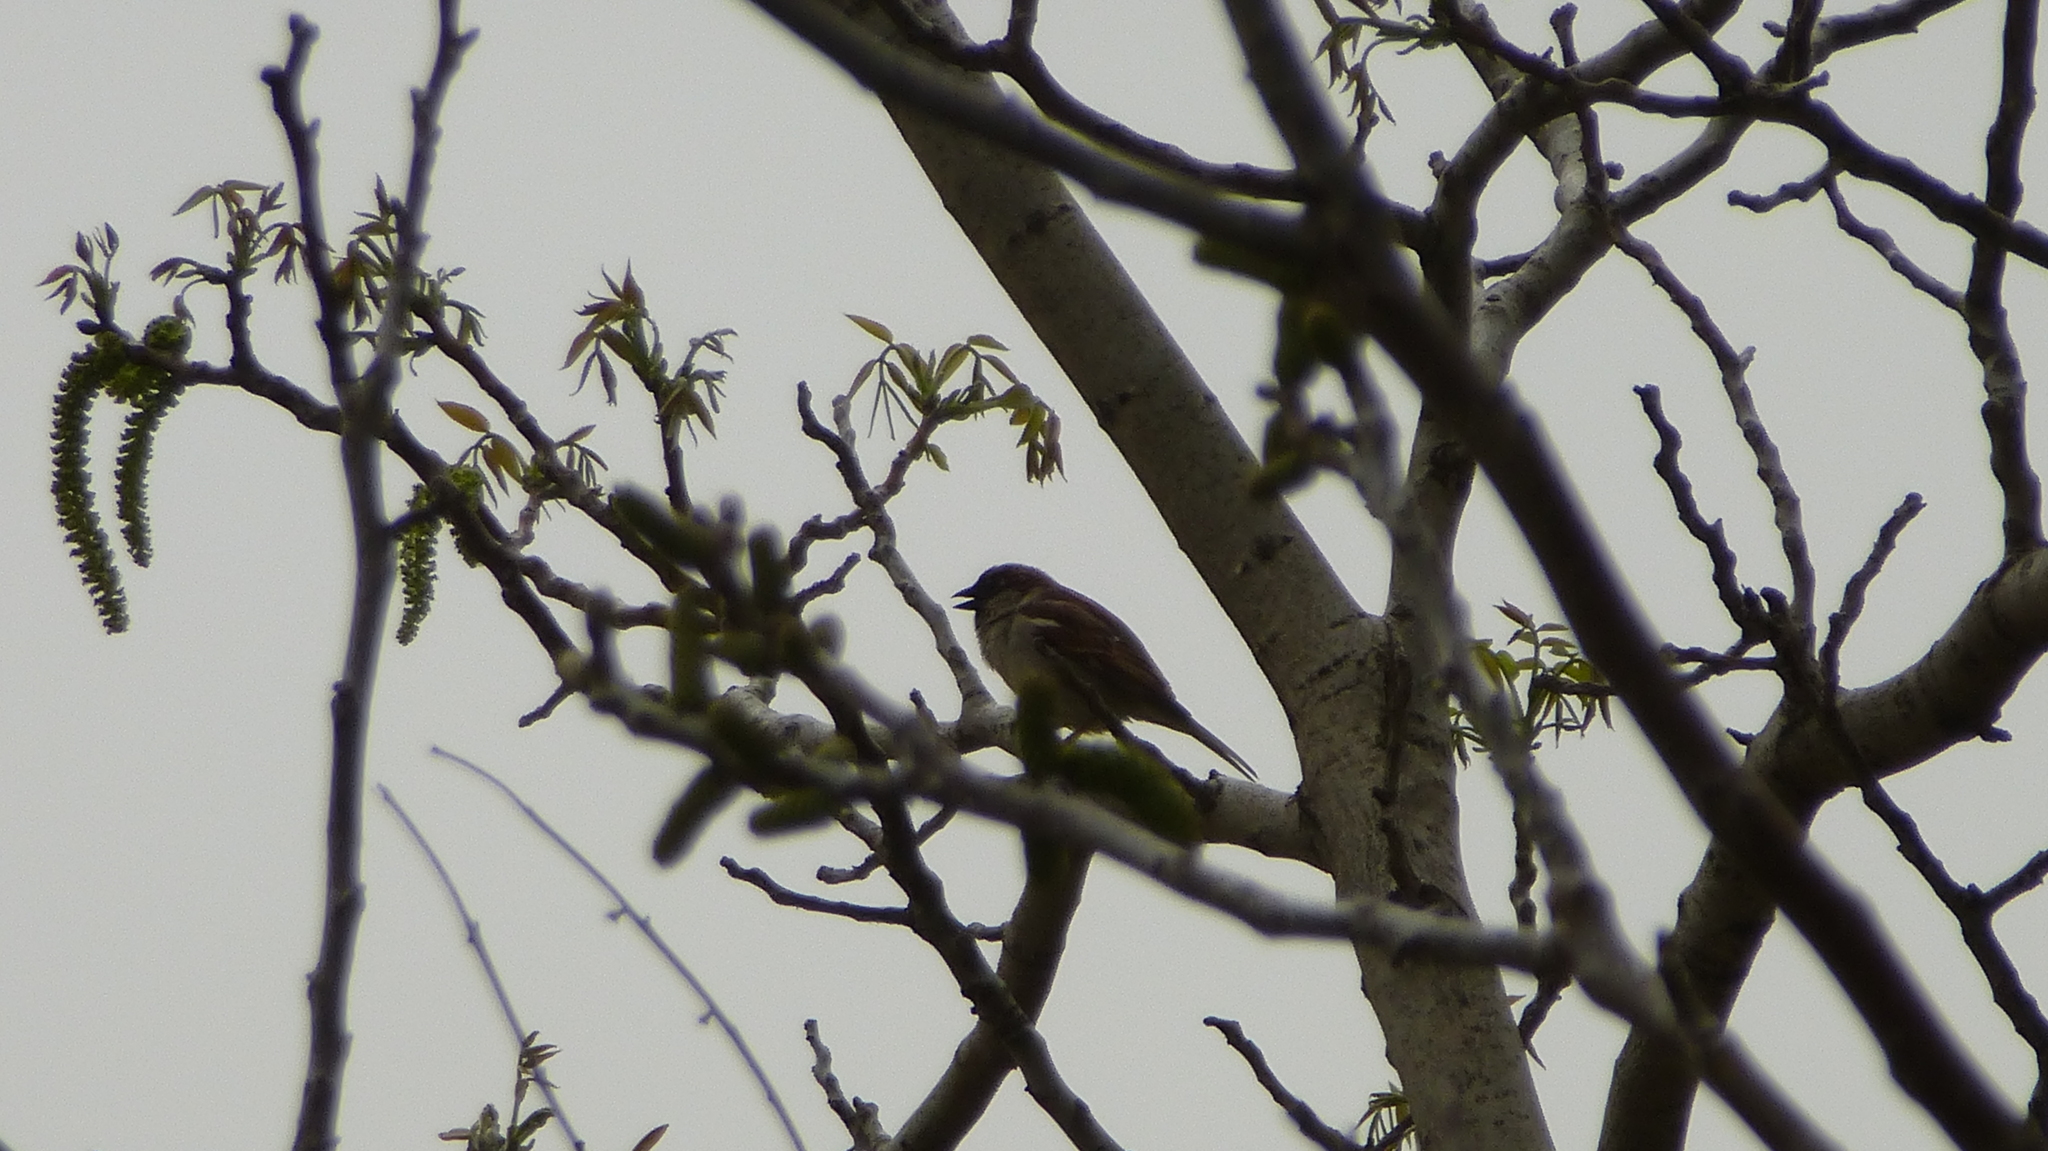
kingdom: Animalia
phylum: Chordata
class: Aves
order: Passeriformes
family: Passeridae
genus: Passer
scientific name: Passer domesticus
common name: House sparrow
